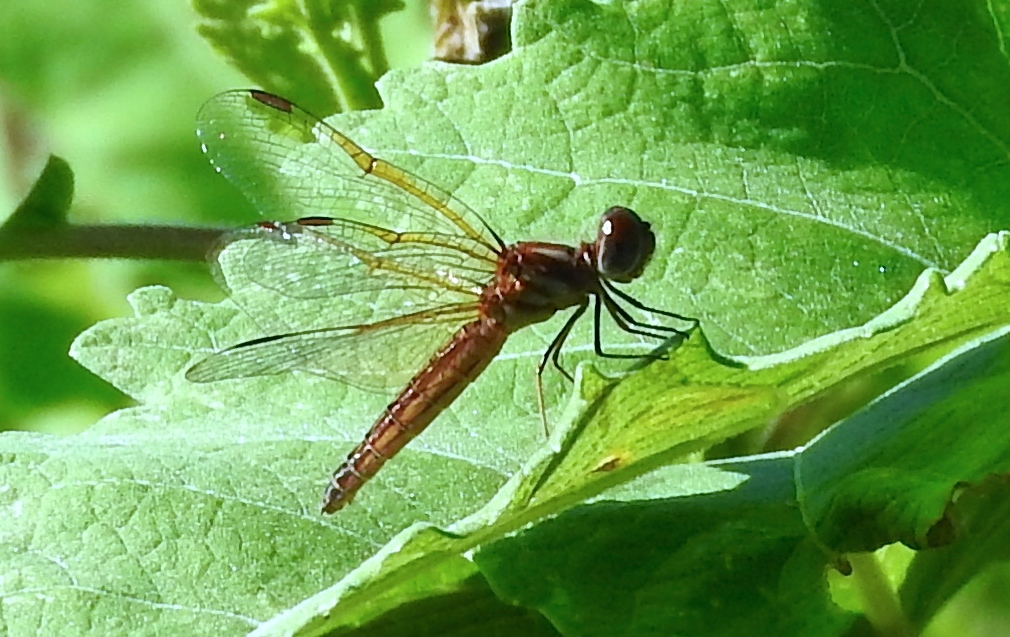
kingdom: Animalia
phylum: Arthropoda
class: Insecta
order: Odonata
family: Libellulidae
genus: Perithemis
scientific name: Perithemis
